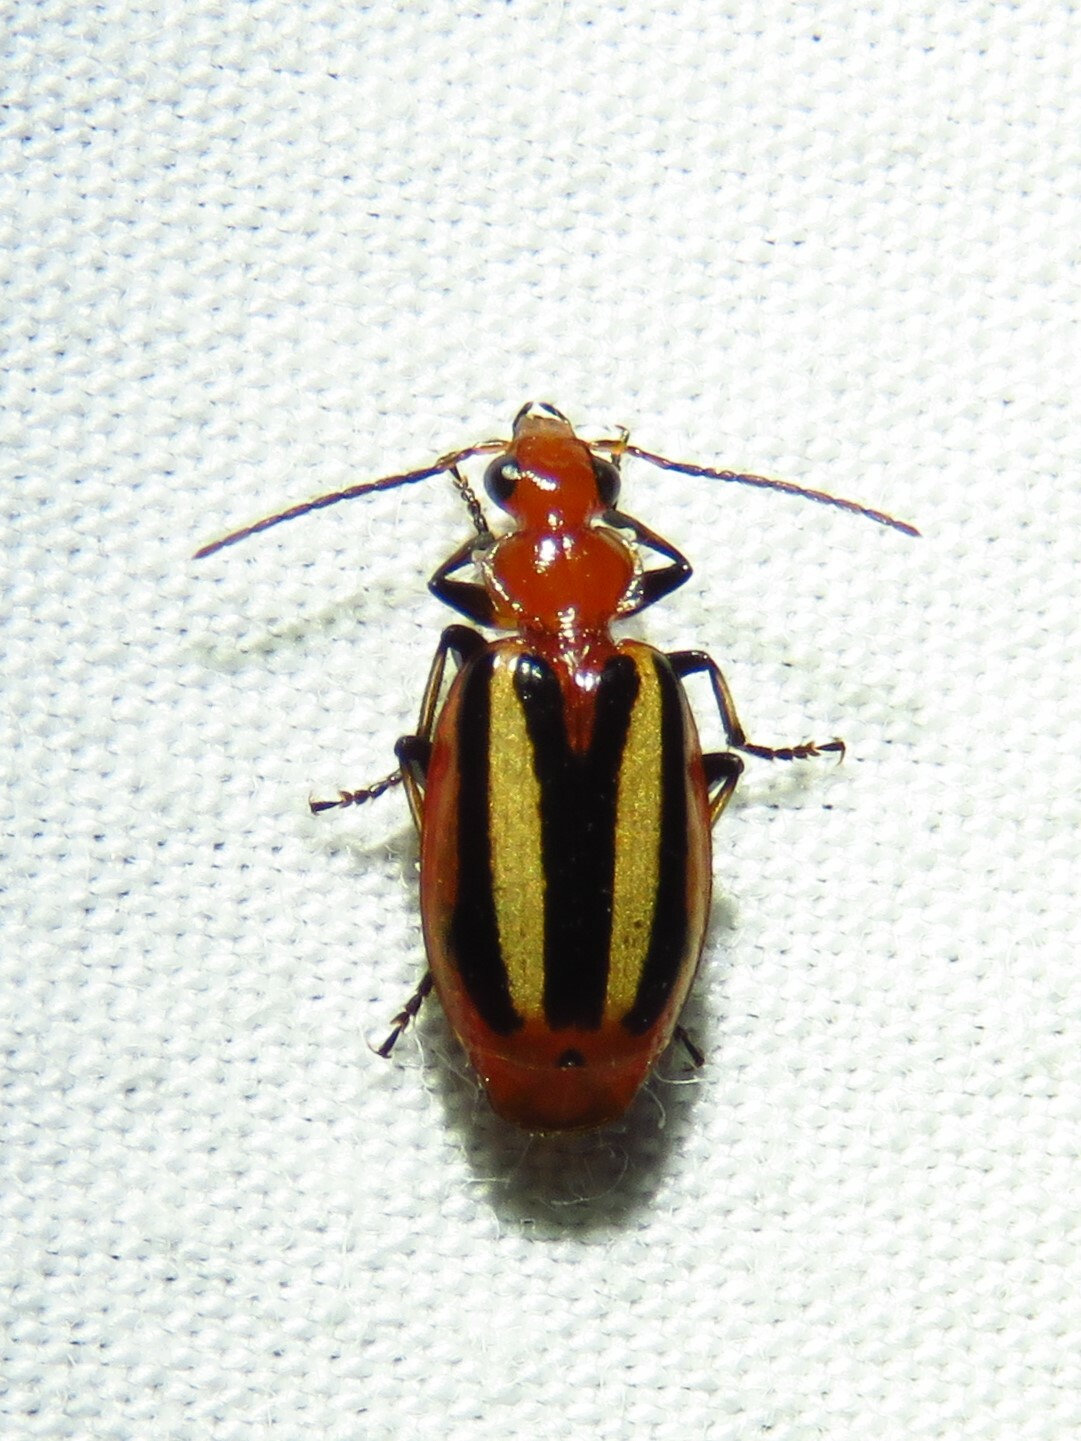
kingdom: Animalia
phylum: Arthropoda
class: Insecta
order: Coleoptera
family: Carabidae
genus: Lebia
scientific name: Lebia vittata
